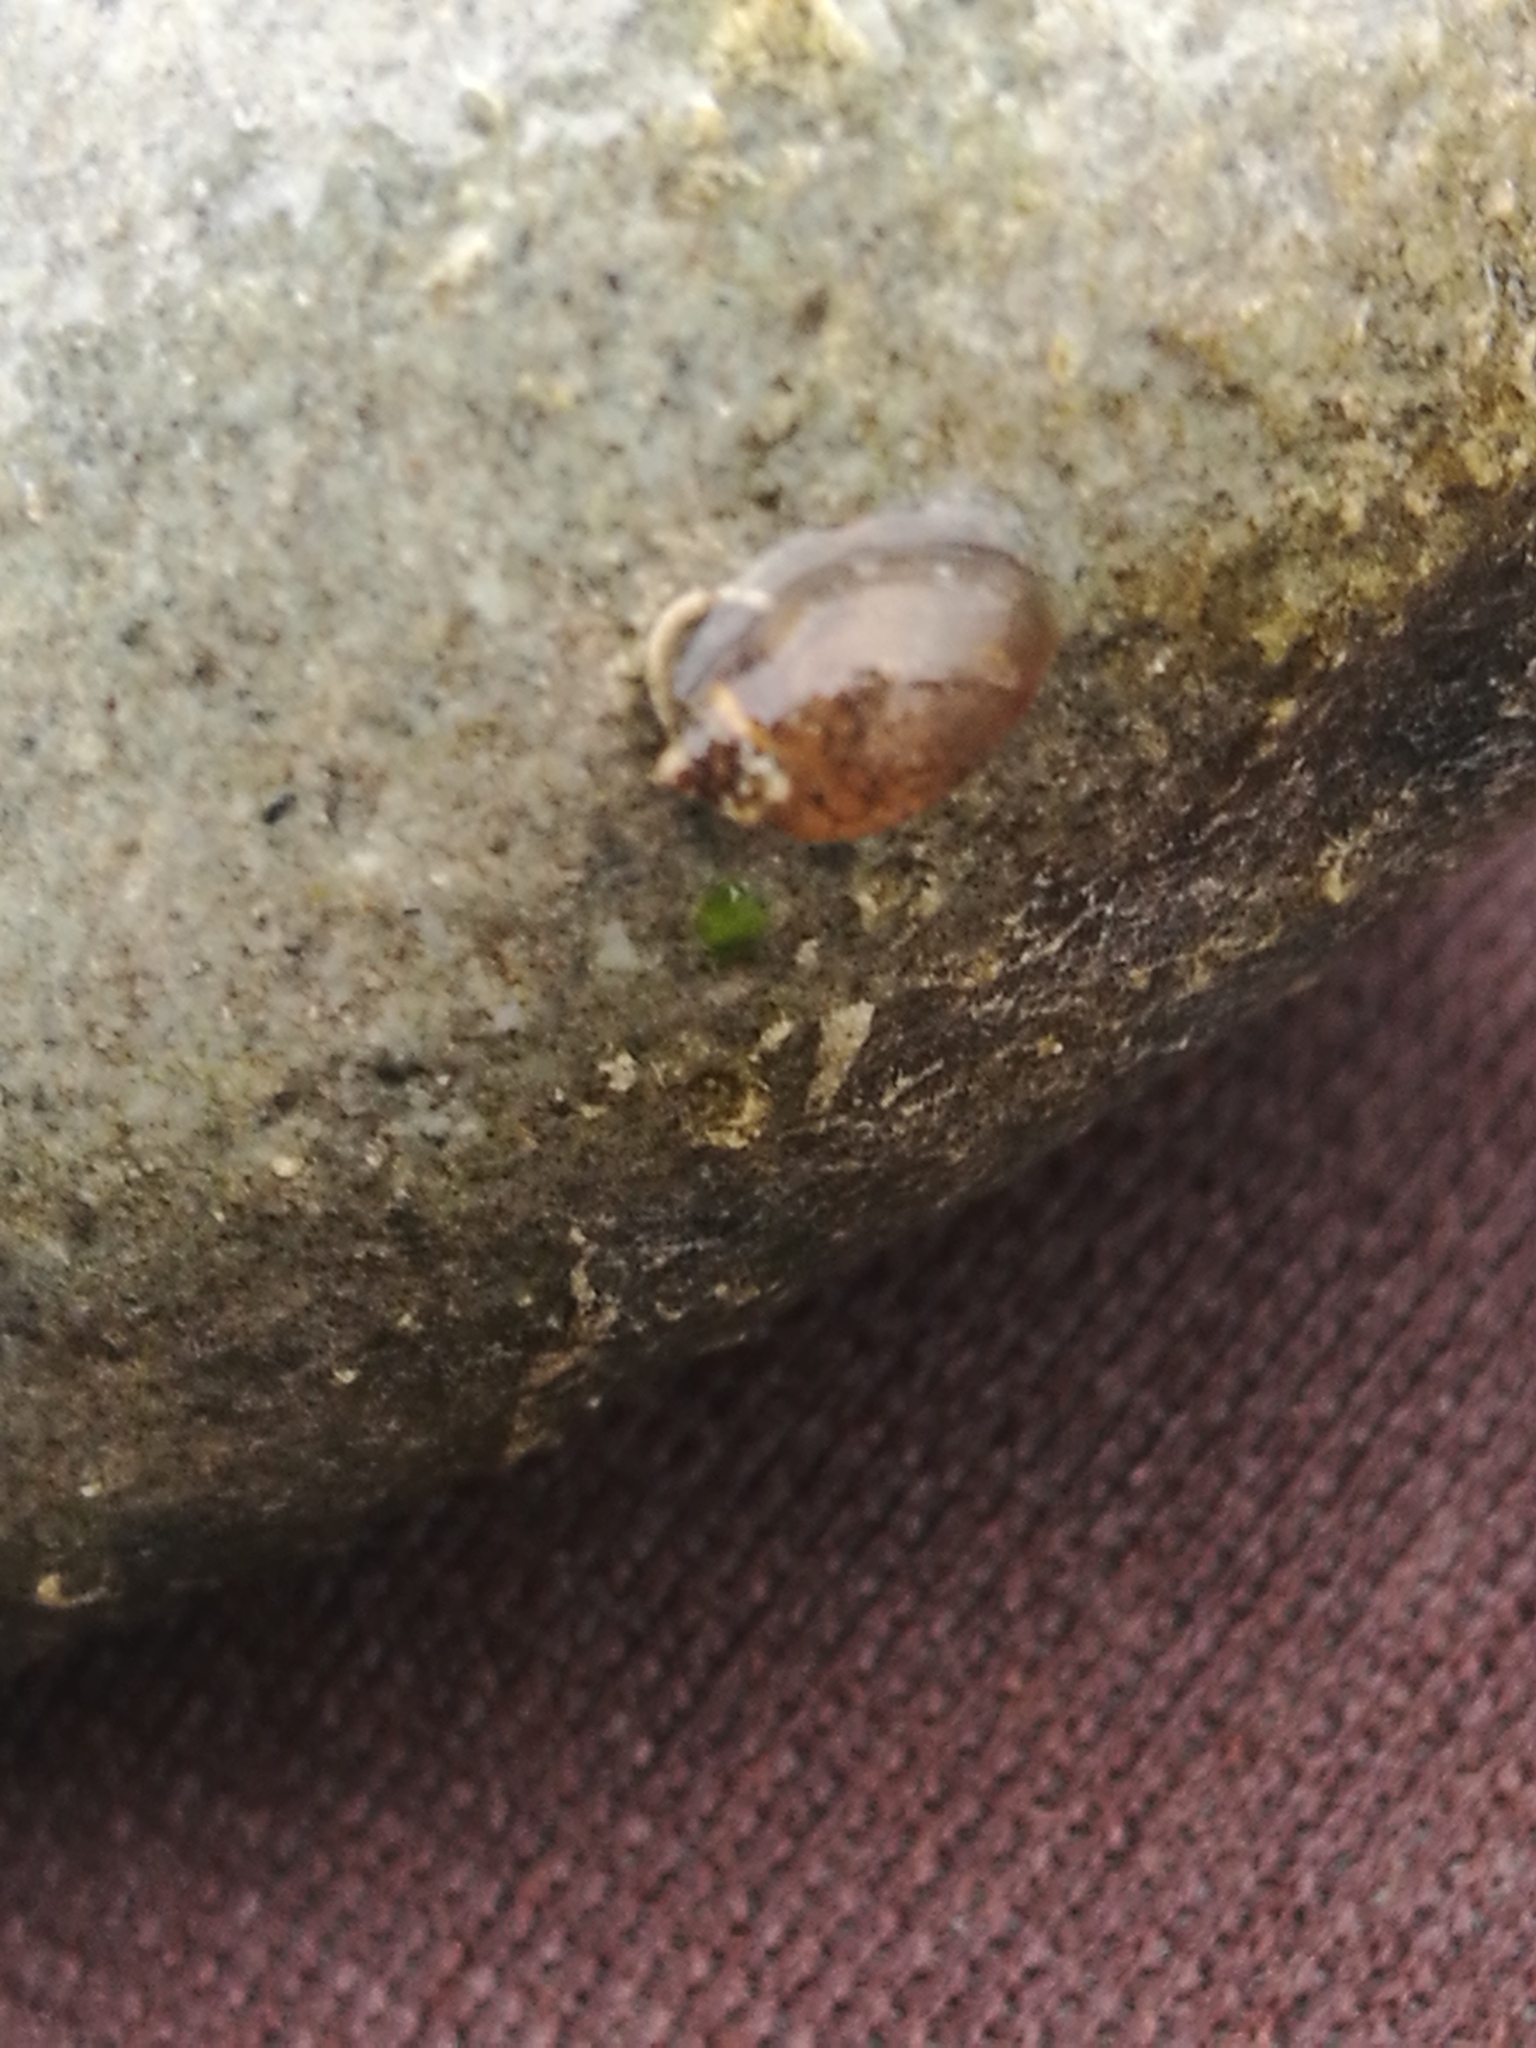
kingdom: Animalia
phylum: Mollusca
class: Gastropoda
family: Physidae
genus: Physella
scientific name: Physella acuta
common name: European physa
